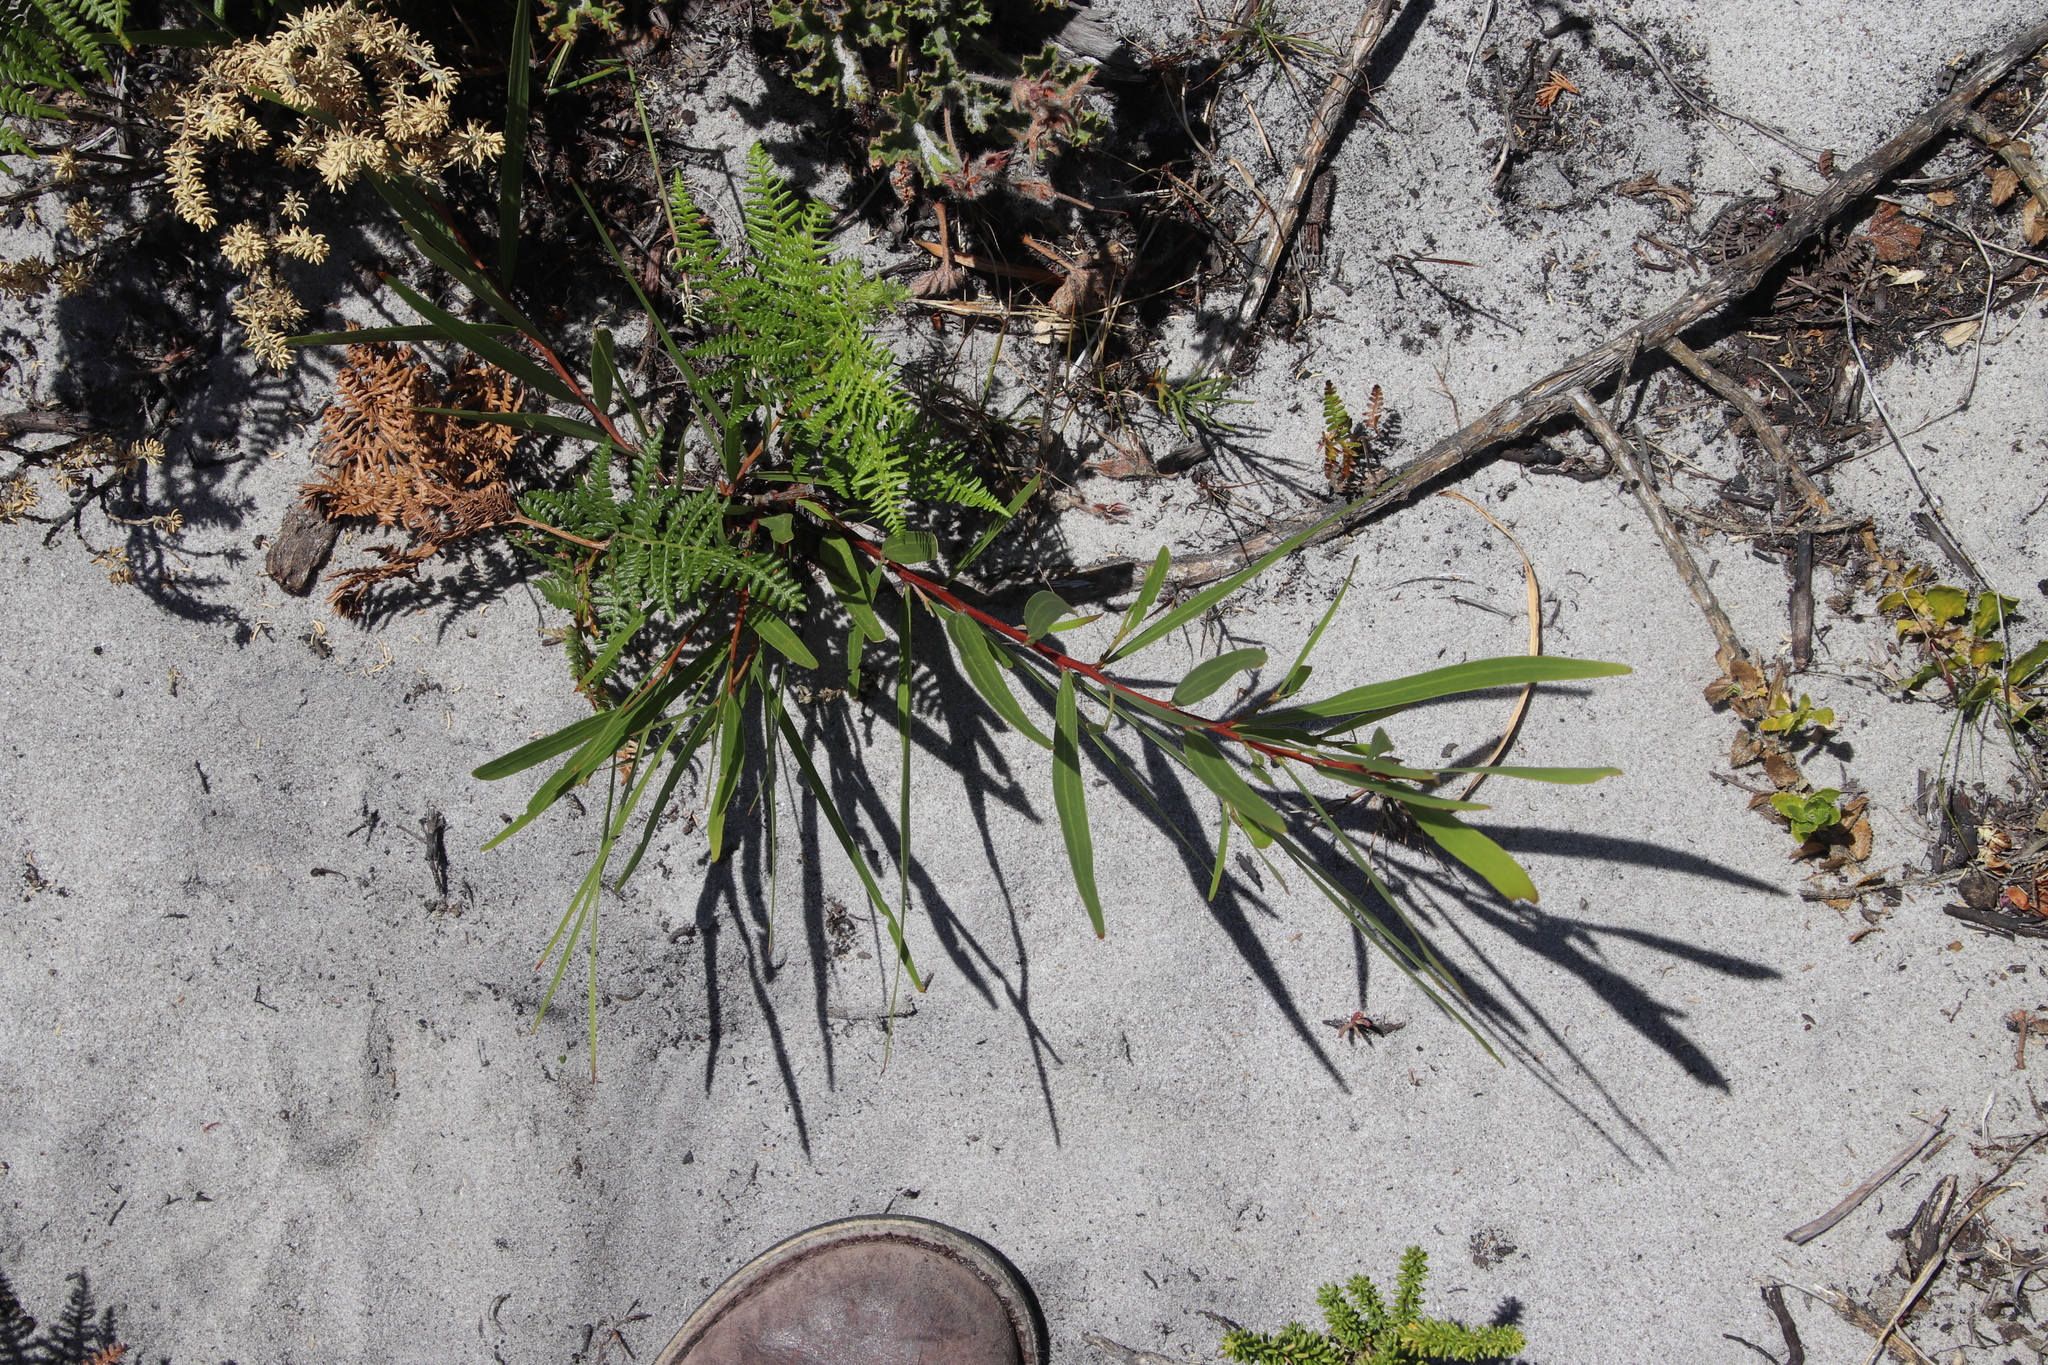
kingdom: Plantae
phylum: Tracheophyta
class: Magnoliopsida
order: Fabales
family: Fabaceae
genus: Acacia
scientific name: Acacia longifolia
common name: Sydney golden wattle
